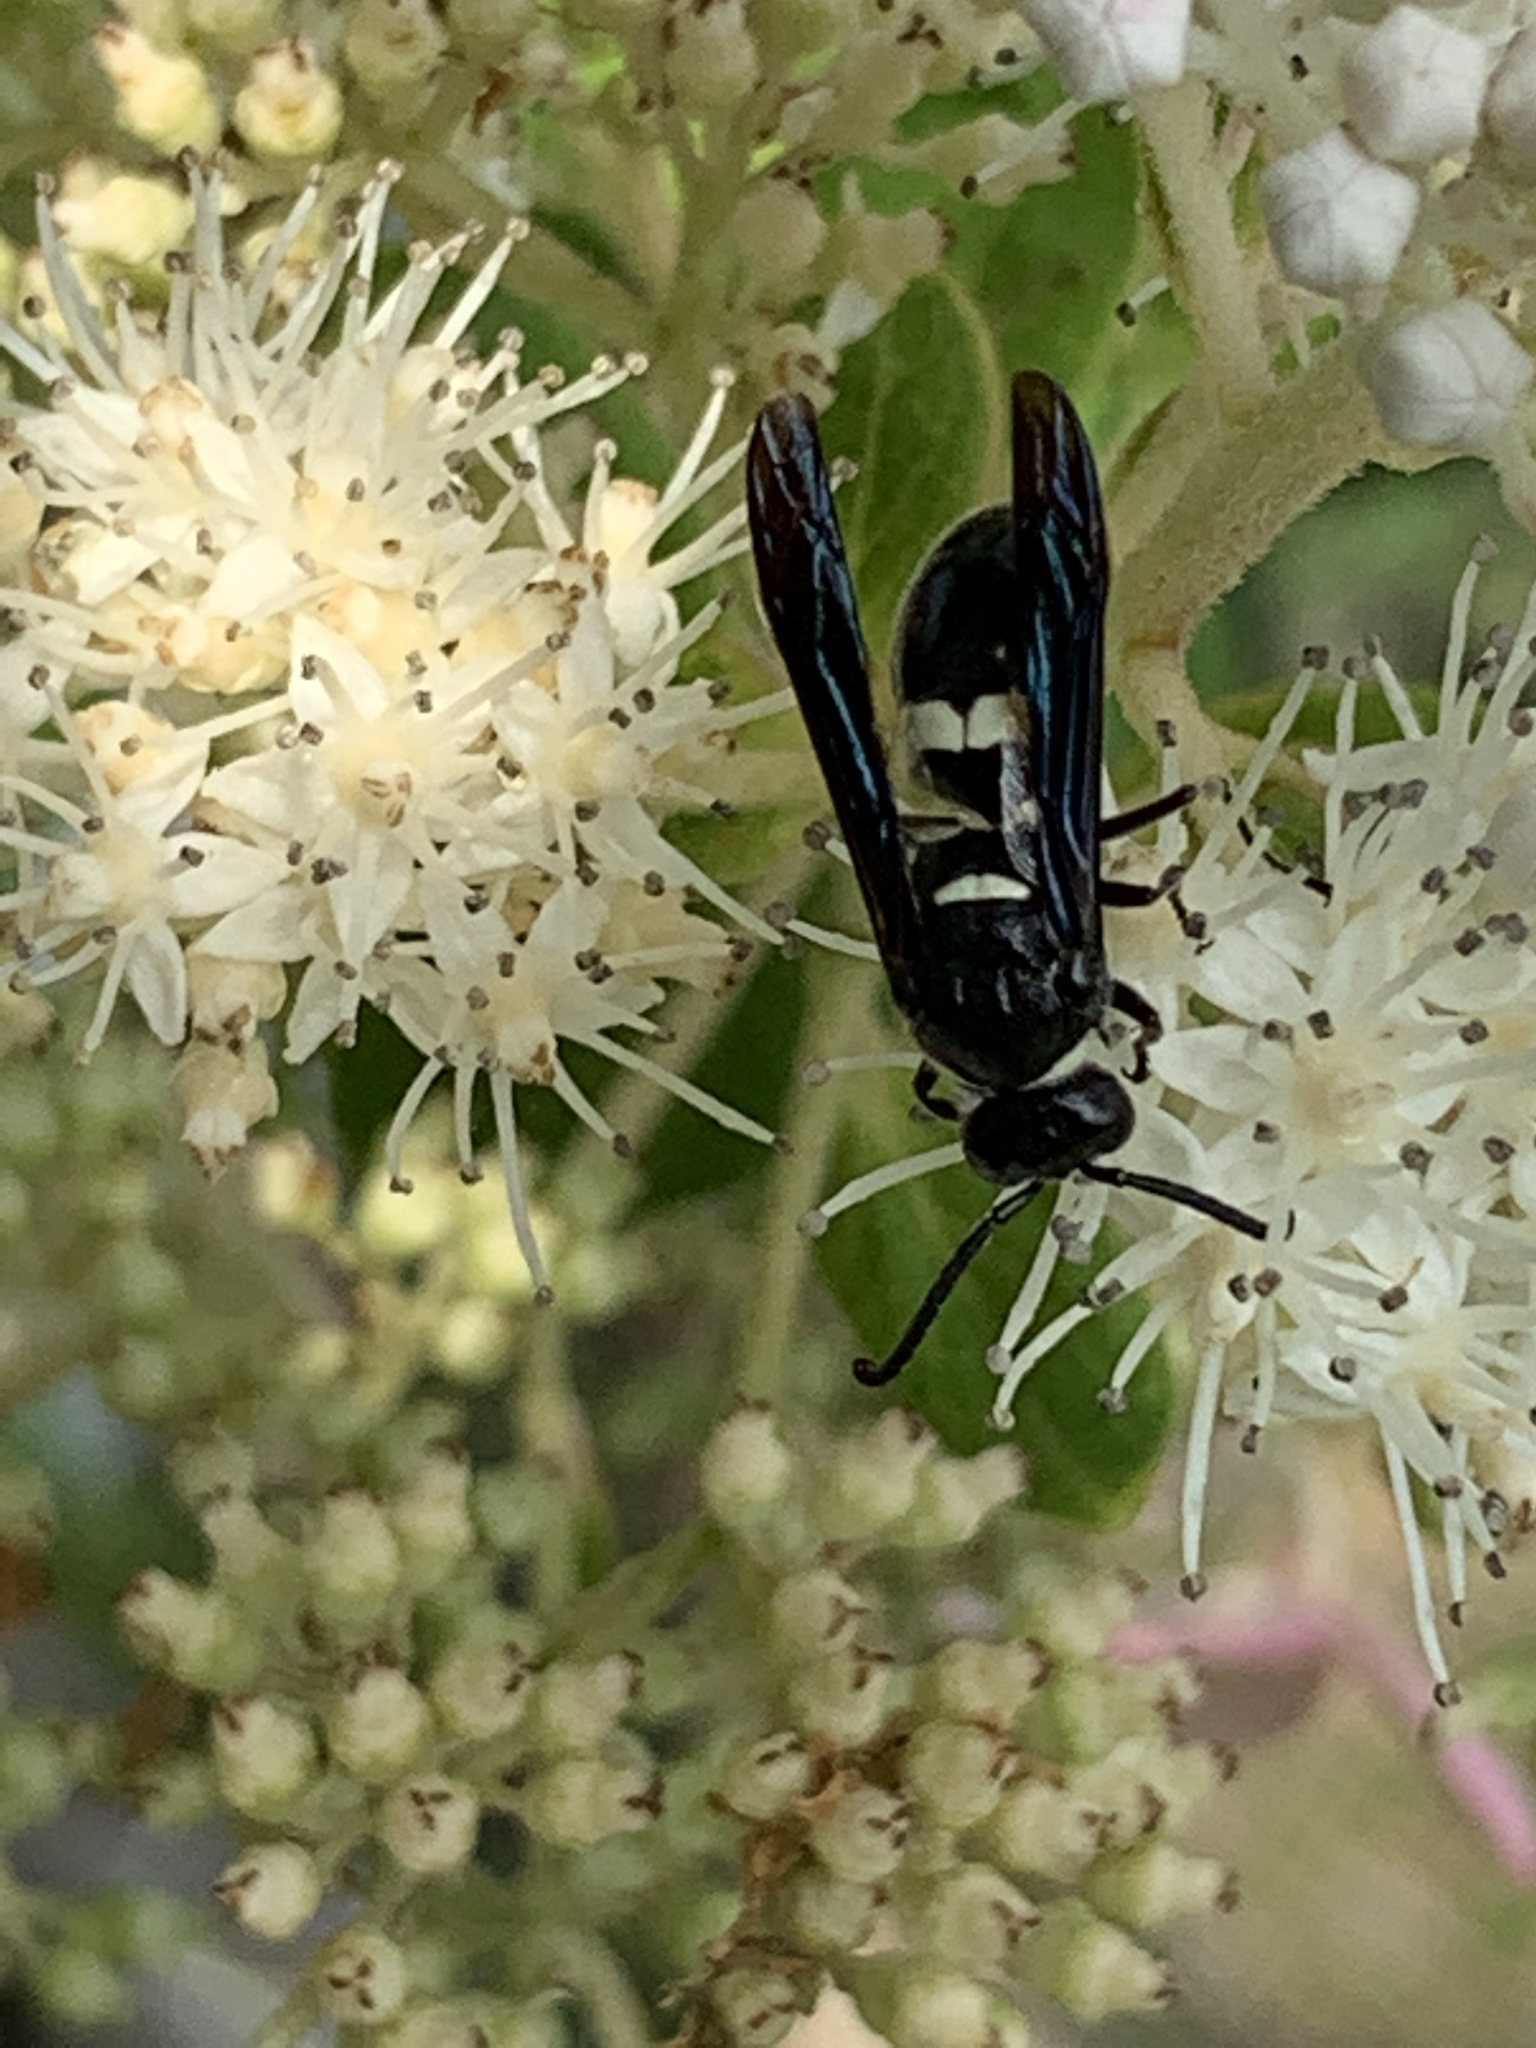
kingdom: Animalia
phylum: Arthropoda
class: Insecta
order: Hymenoptera
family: Eumenidae
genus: Monobia
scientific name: Monobia quadridens
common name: Four-toothed mason wasp
